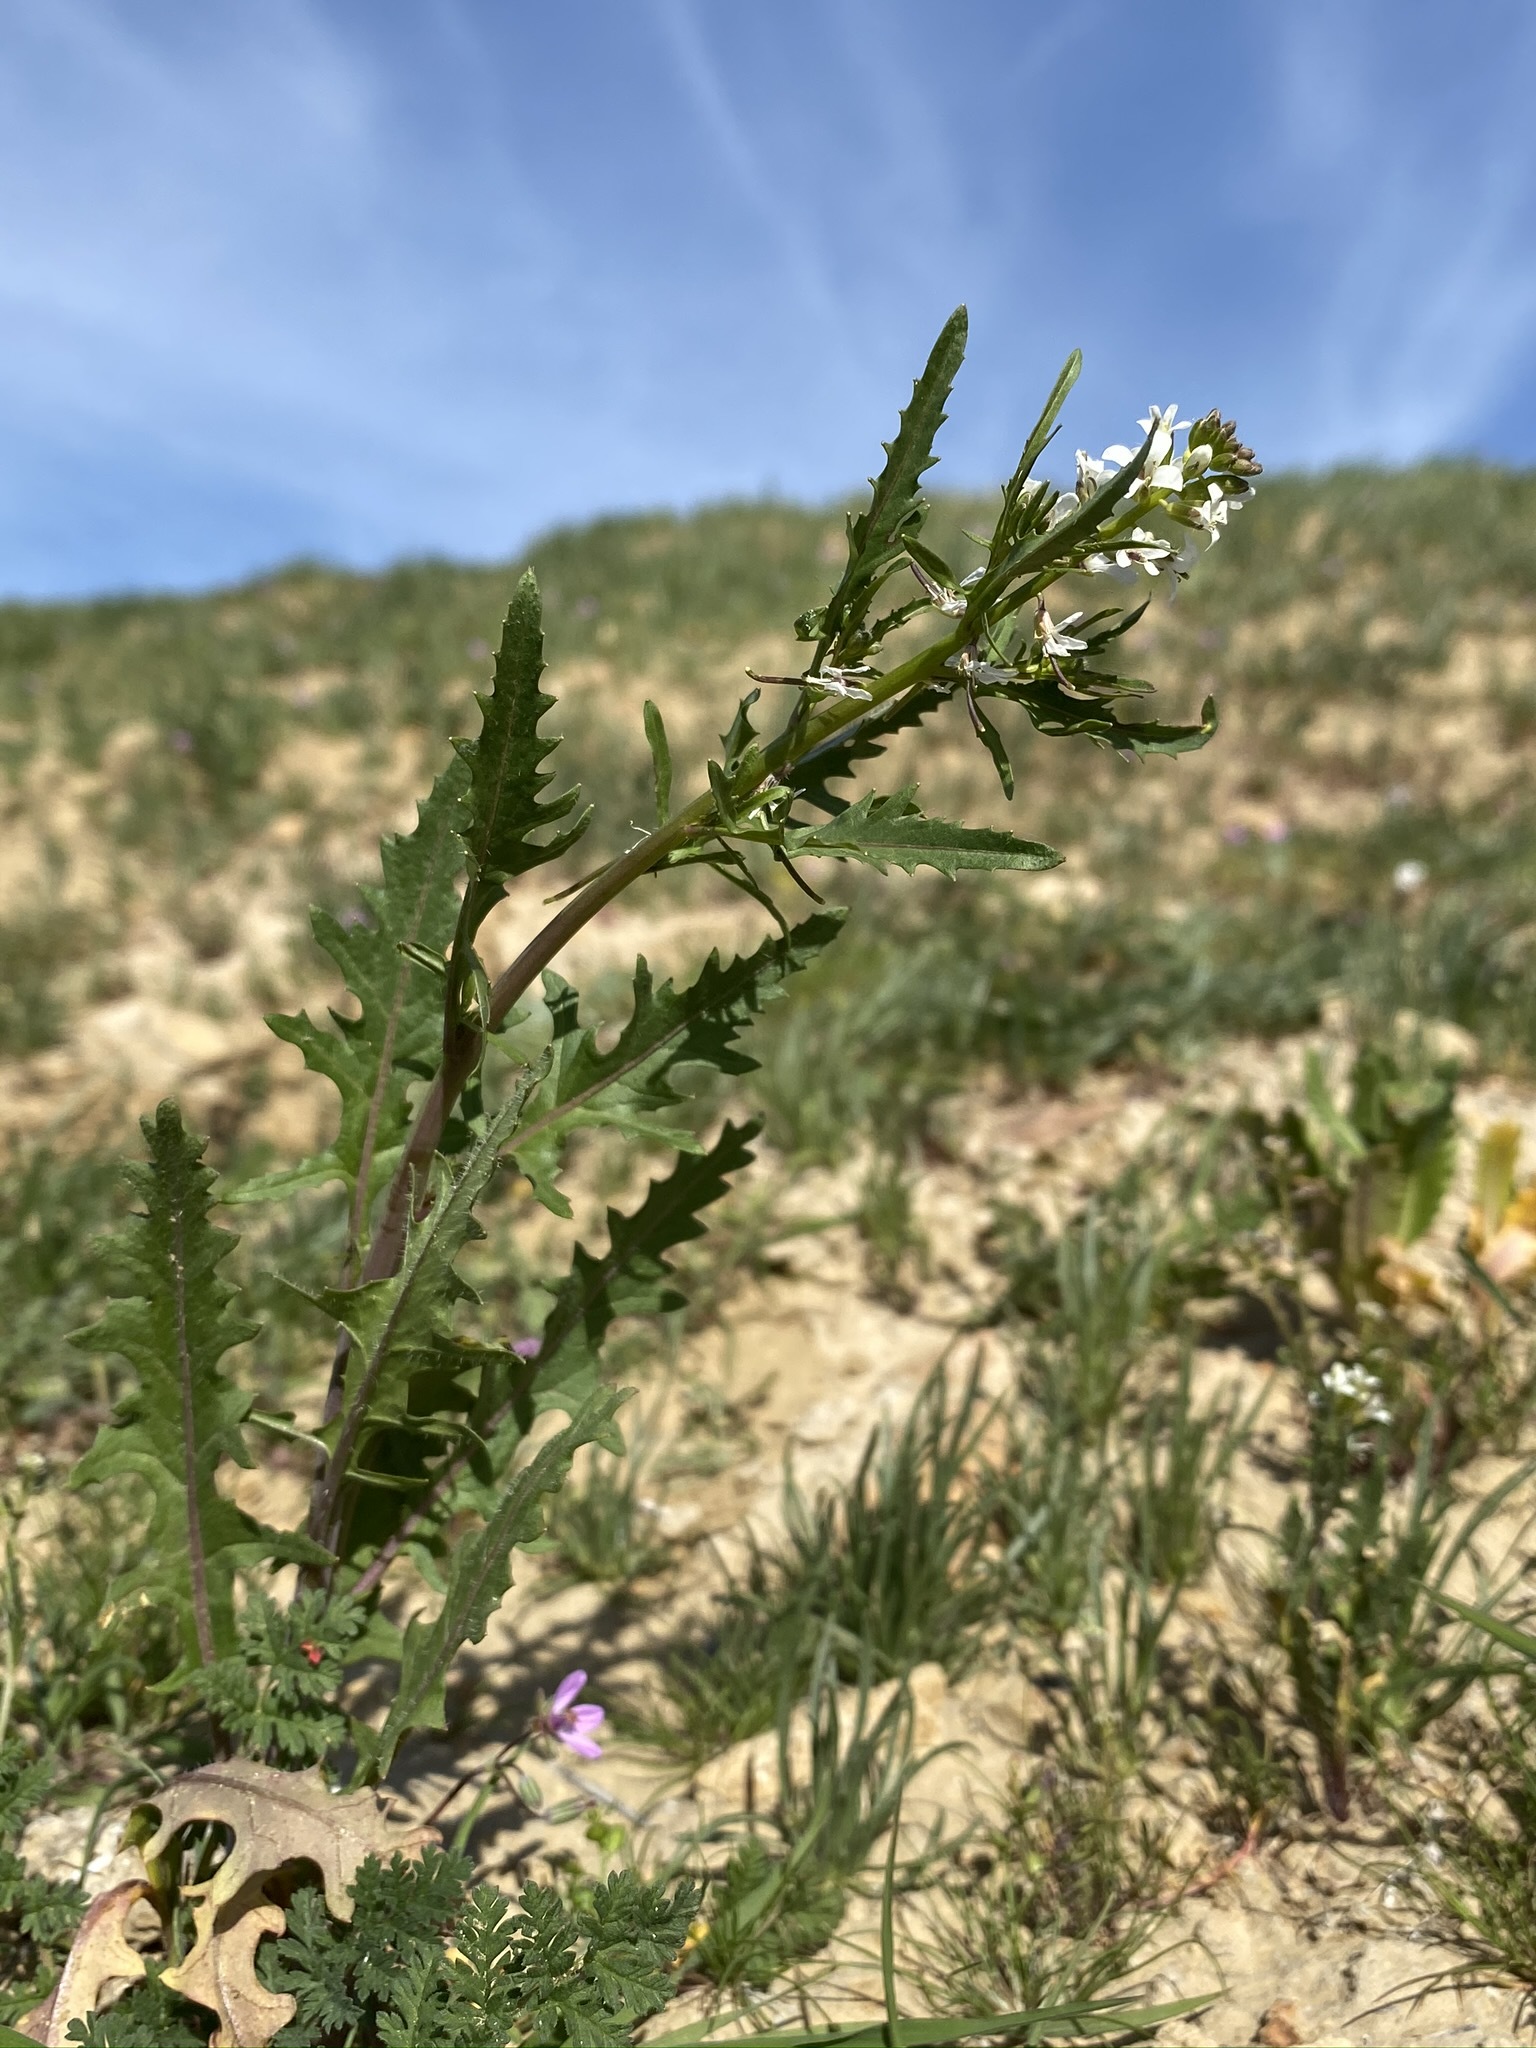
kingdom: Plantae
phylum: Tracheophyta
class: Magnoliopsida
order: Brassicales
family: Brassicaceae
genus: Streptanthus
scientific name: Streptanthus lasiophyllus
